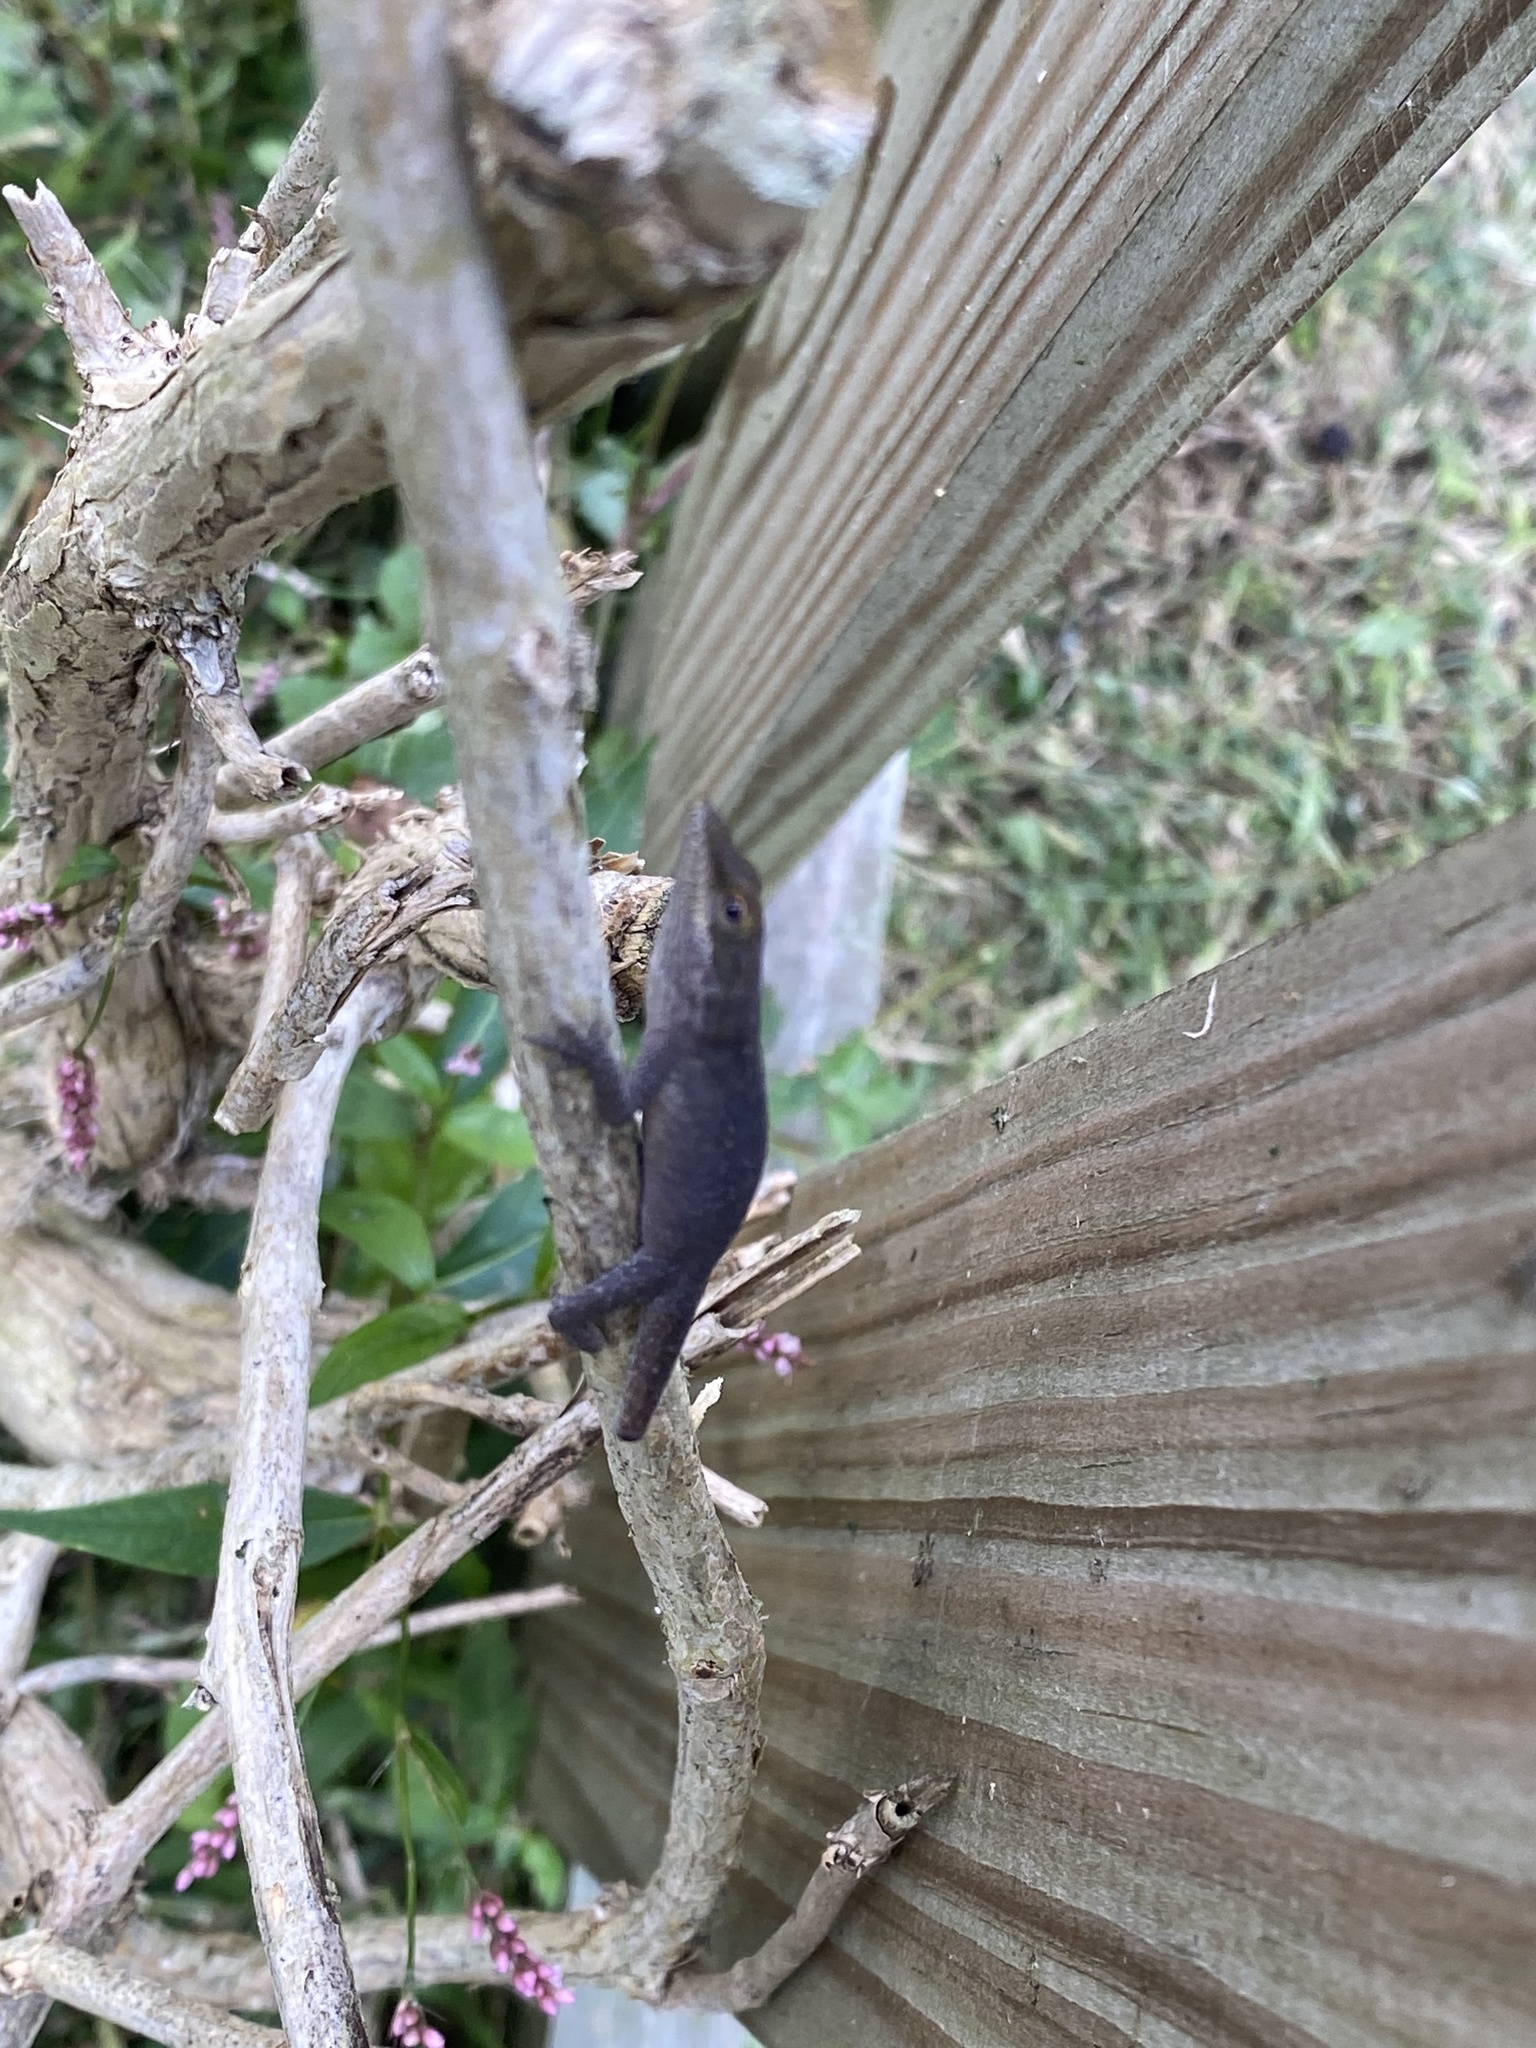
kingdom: Animalia
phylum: Chordata
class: Squamata
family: Dactyloidae
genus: Anolis
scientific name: Anolis carolinensis
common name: Green anole
